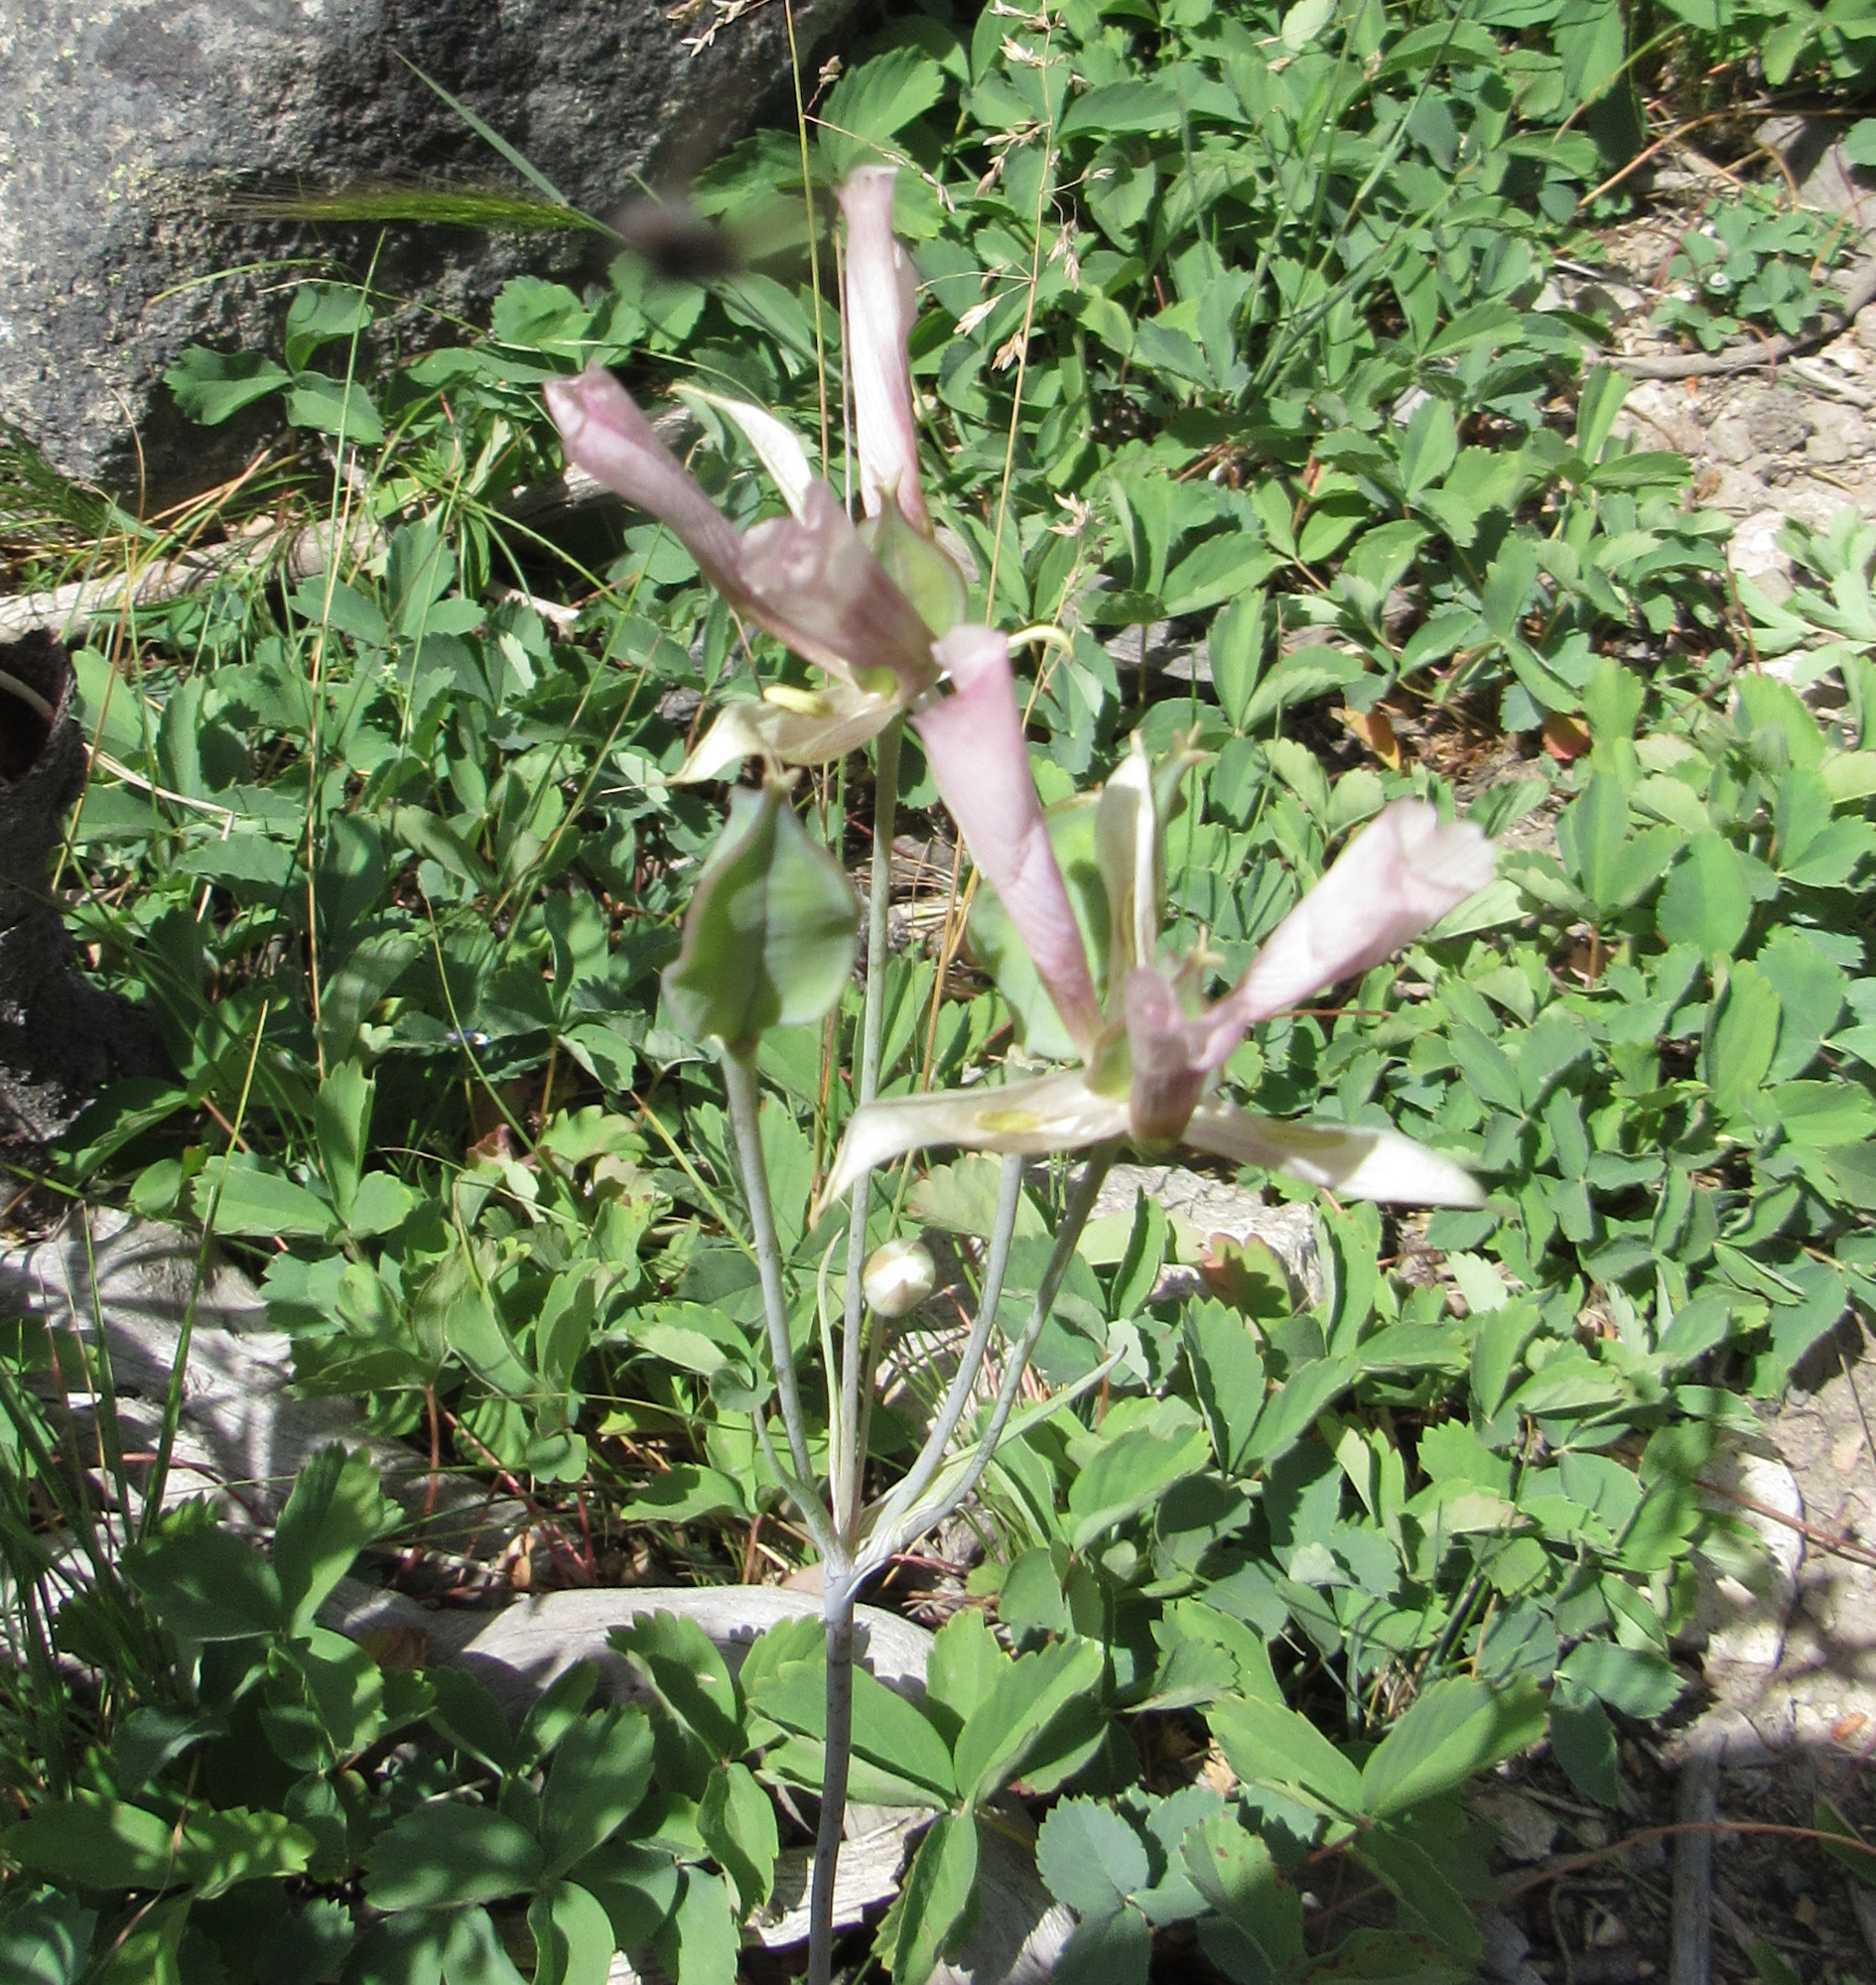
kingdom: Plantae
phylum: Tracheophyta
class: Liliopsida
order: Liliales
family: Liliaceae
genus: Calochortus
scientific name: Calochortus eurycarpus
